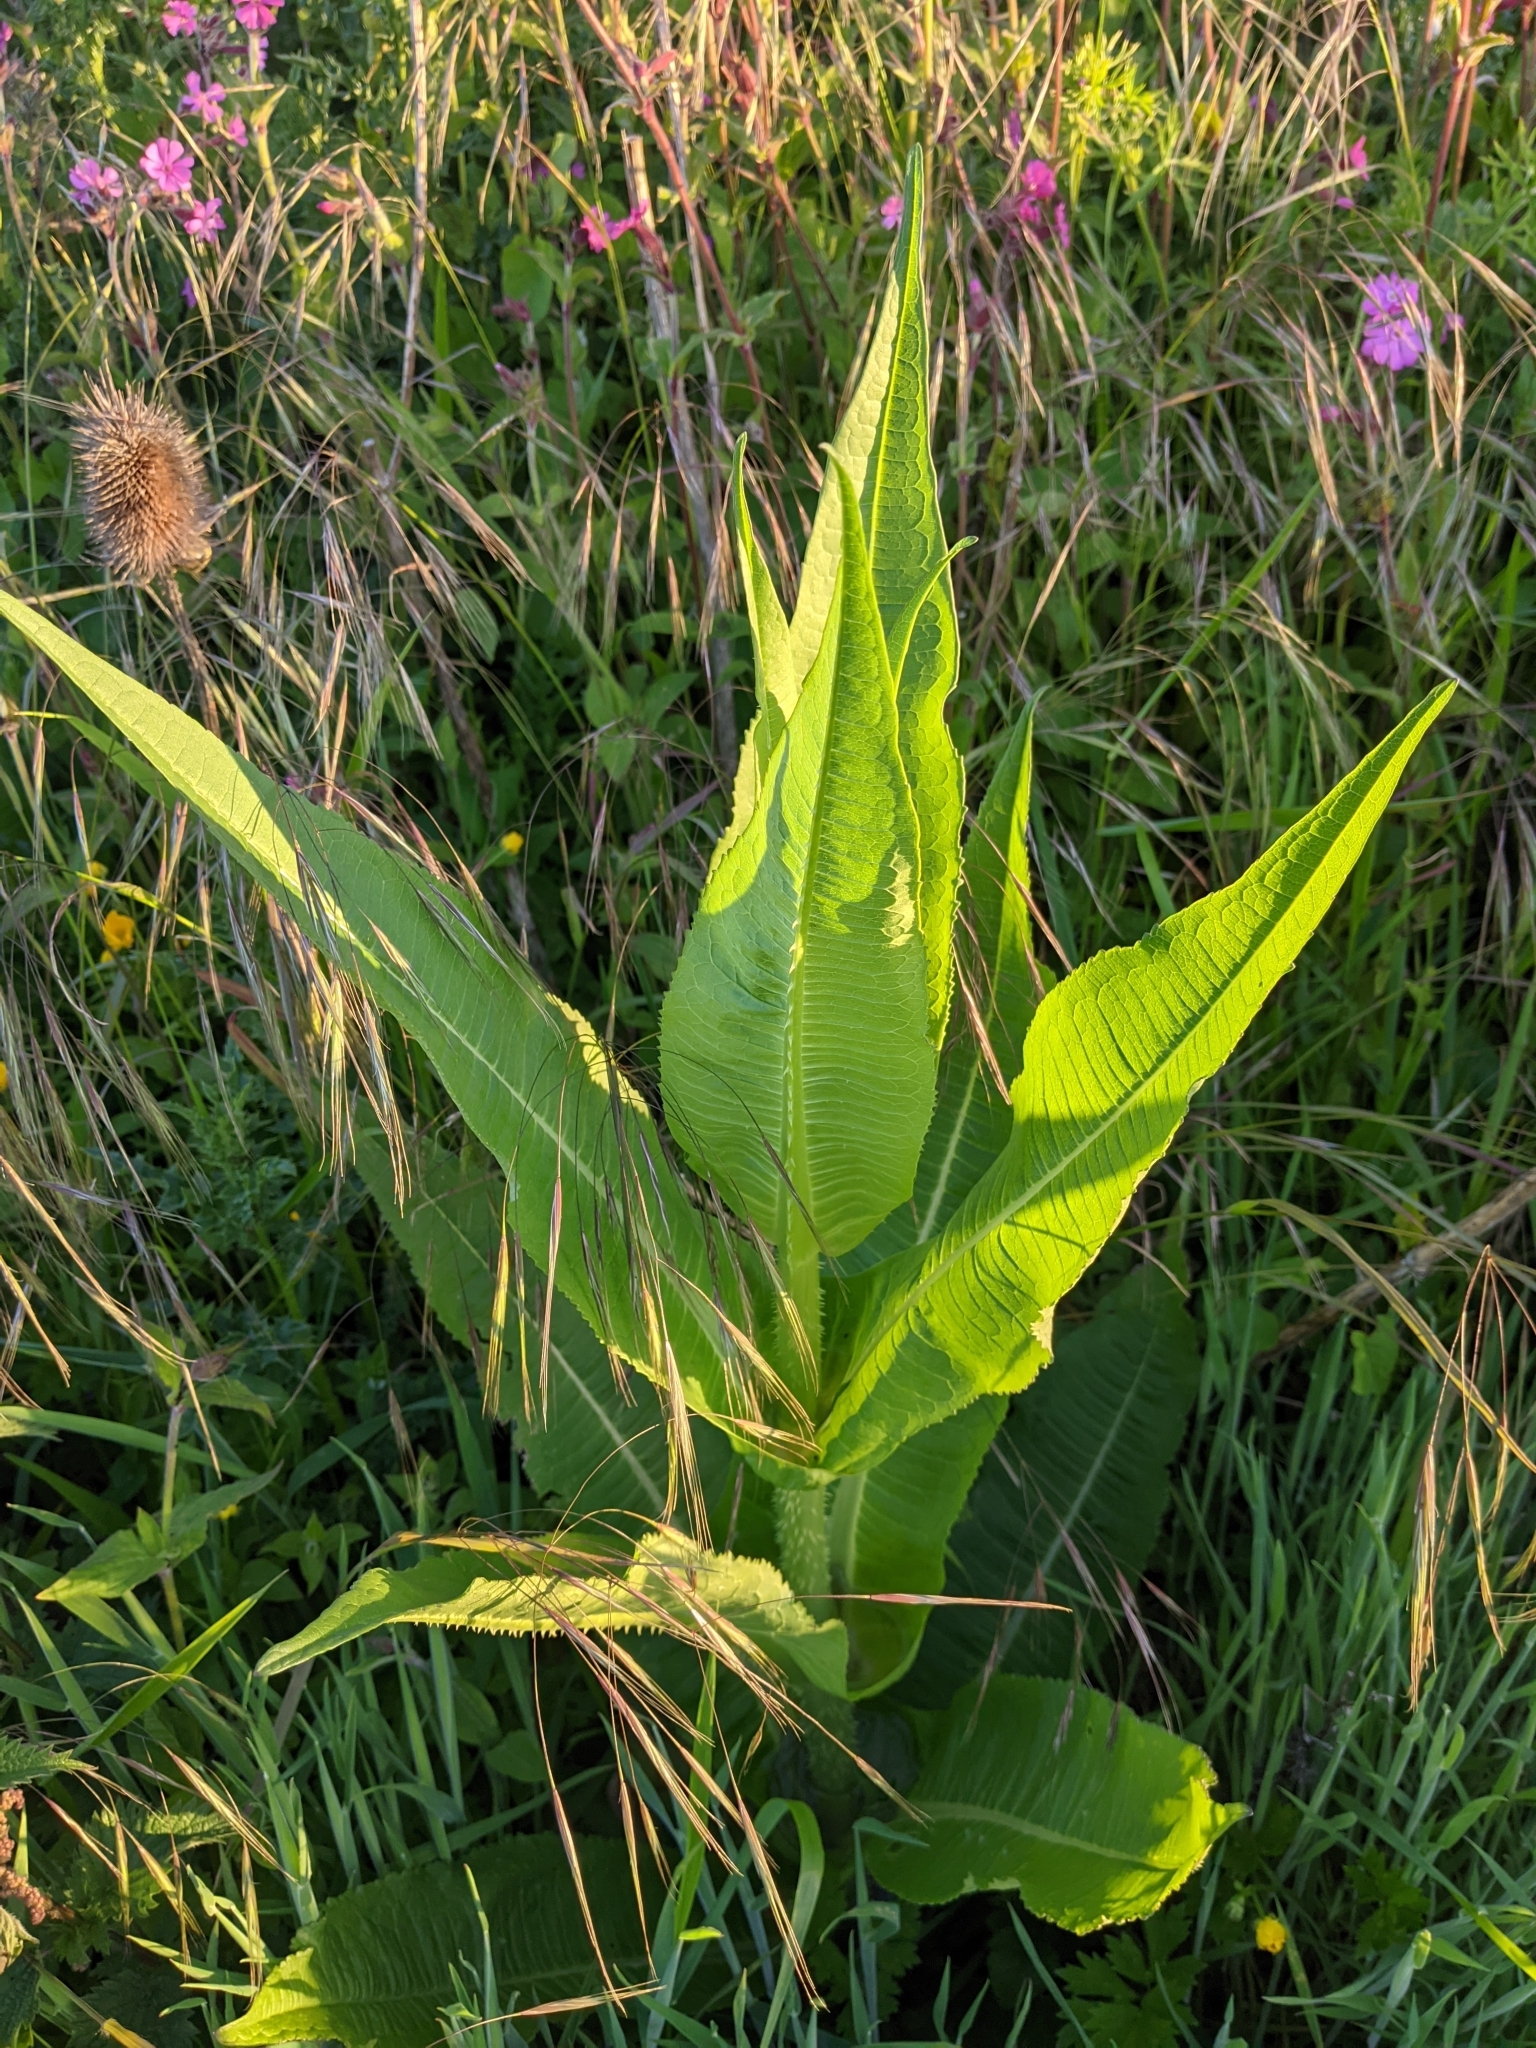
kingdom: Plantae
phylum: Tracheophyta
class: Magnoliopsida
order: Dipsacales
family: Caprifoliaceae
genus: Dipsacus
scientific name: Dipsacus fullonum
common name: Teasel
